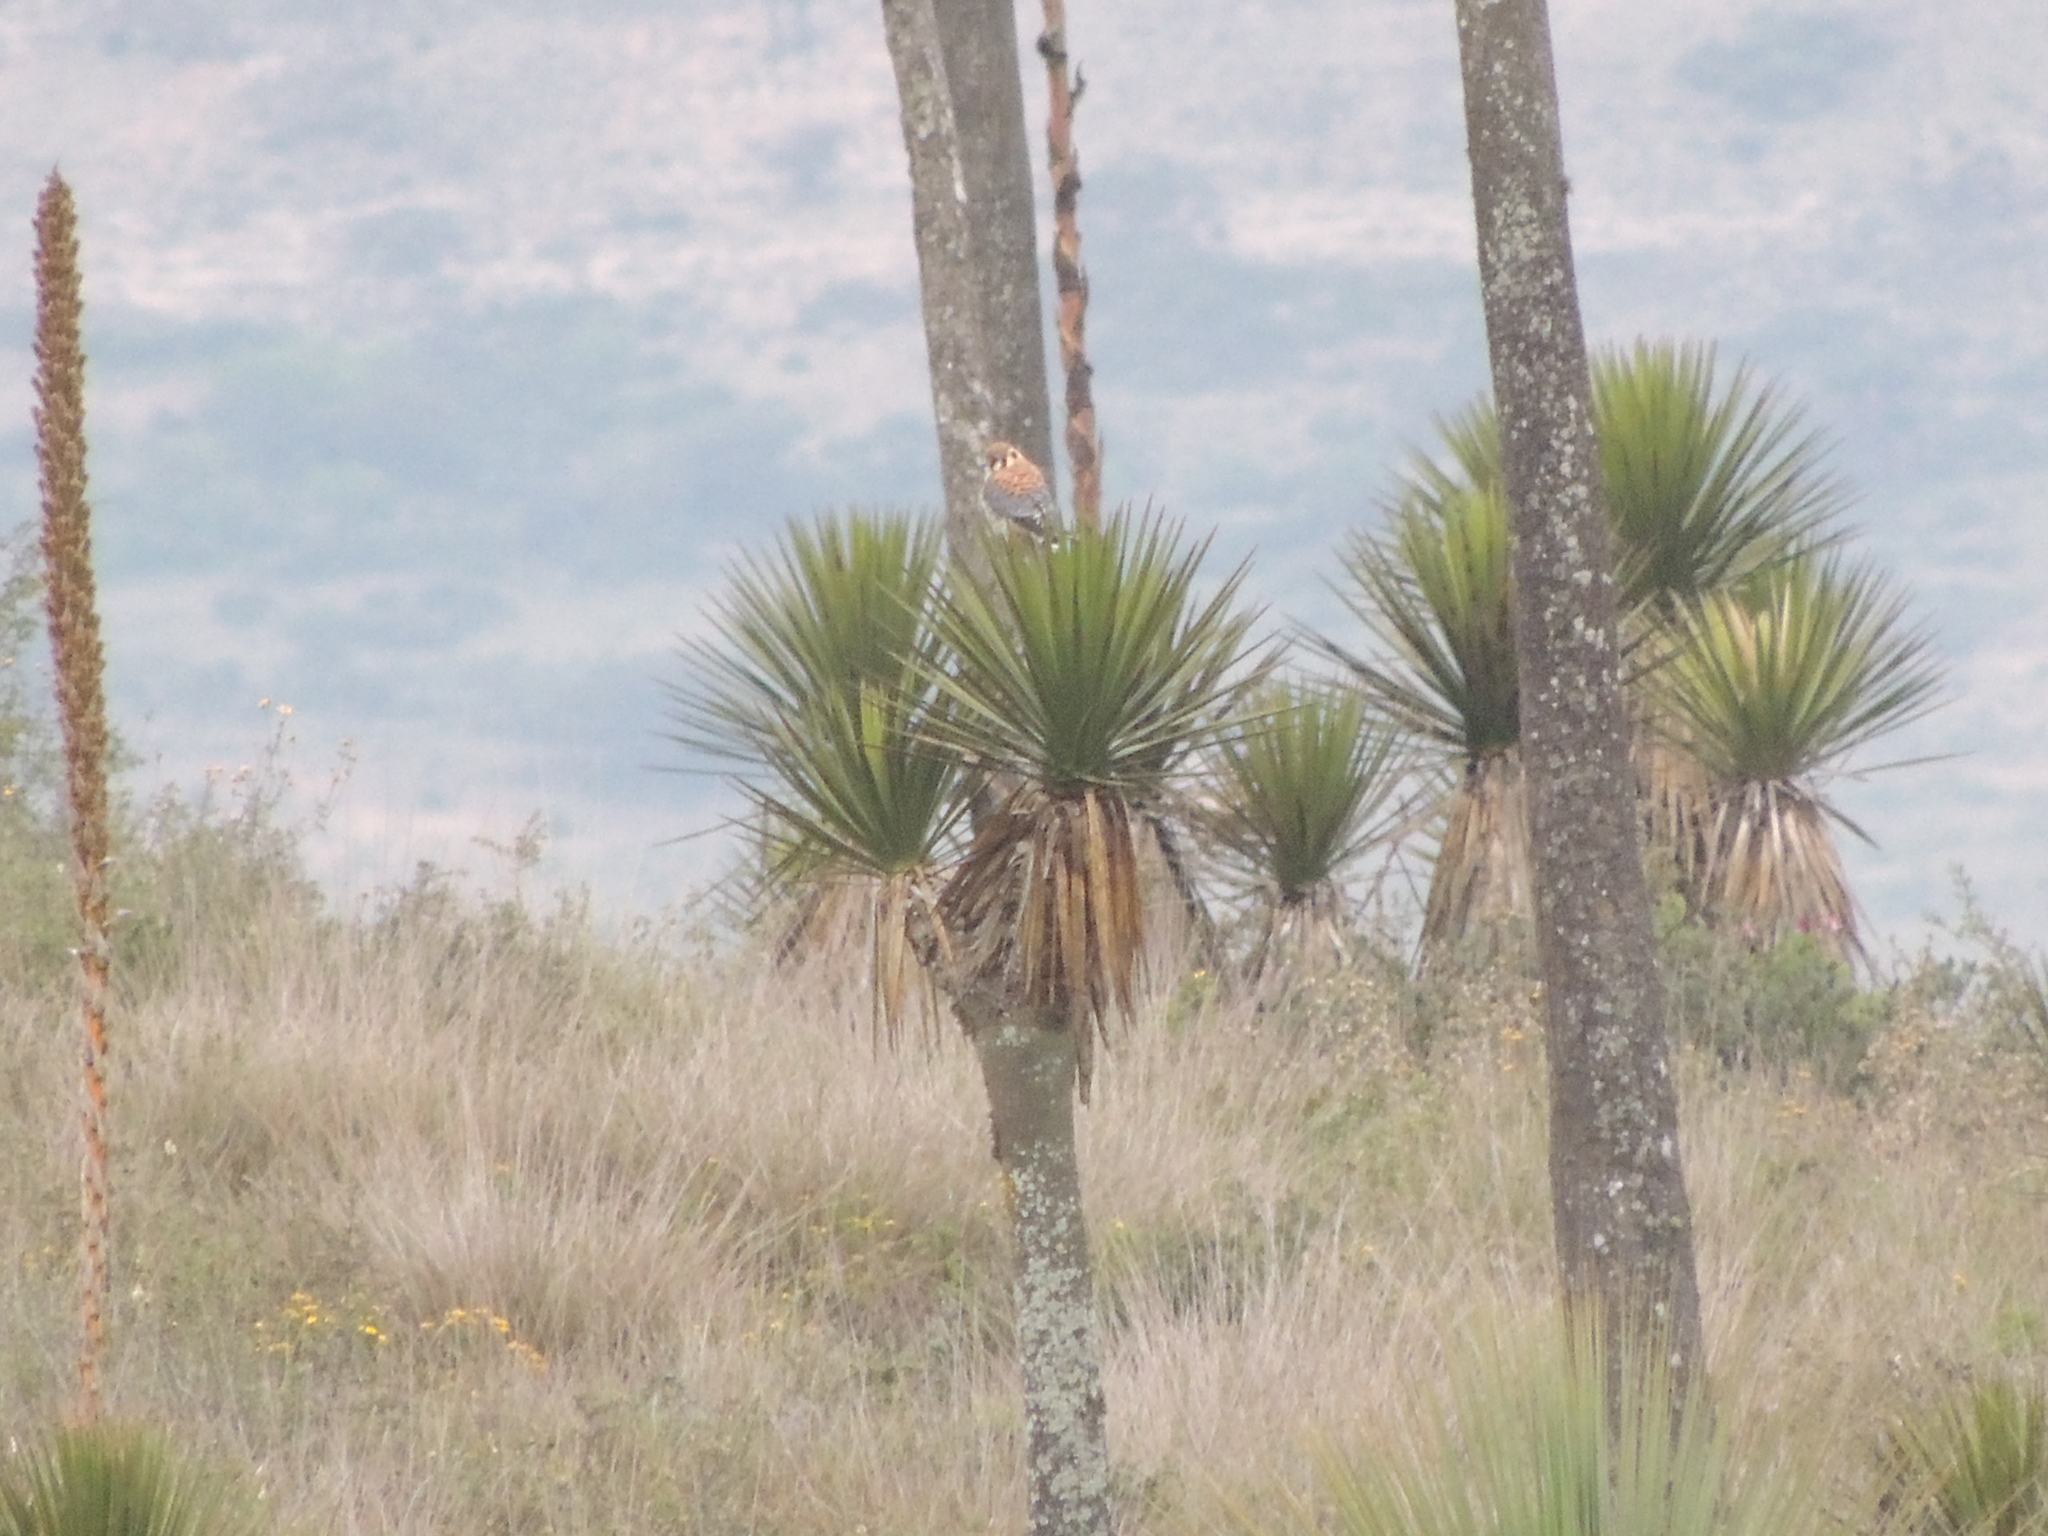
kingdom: Animalia
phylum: Chordata
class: Aves
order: Falconiformes
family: Falconidae
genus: Falco
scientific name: Falco sparverius
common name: American kestrel
